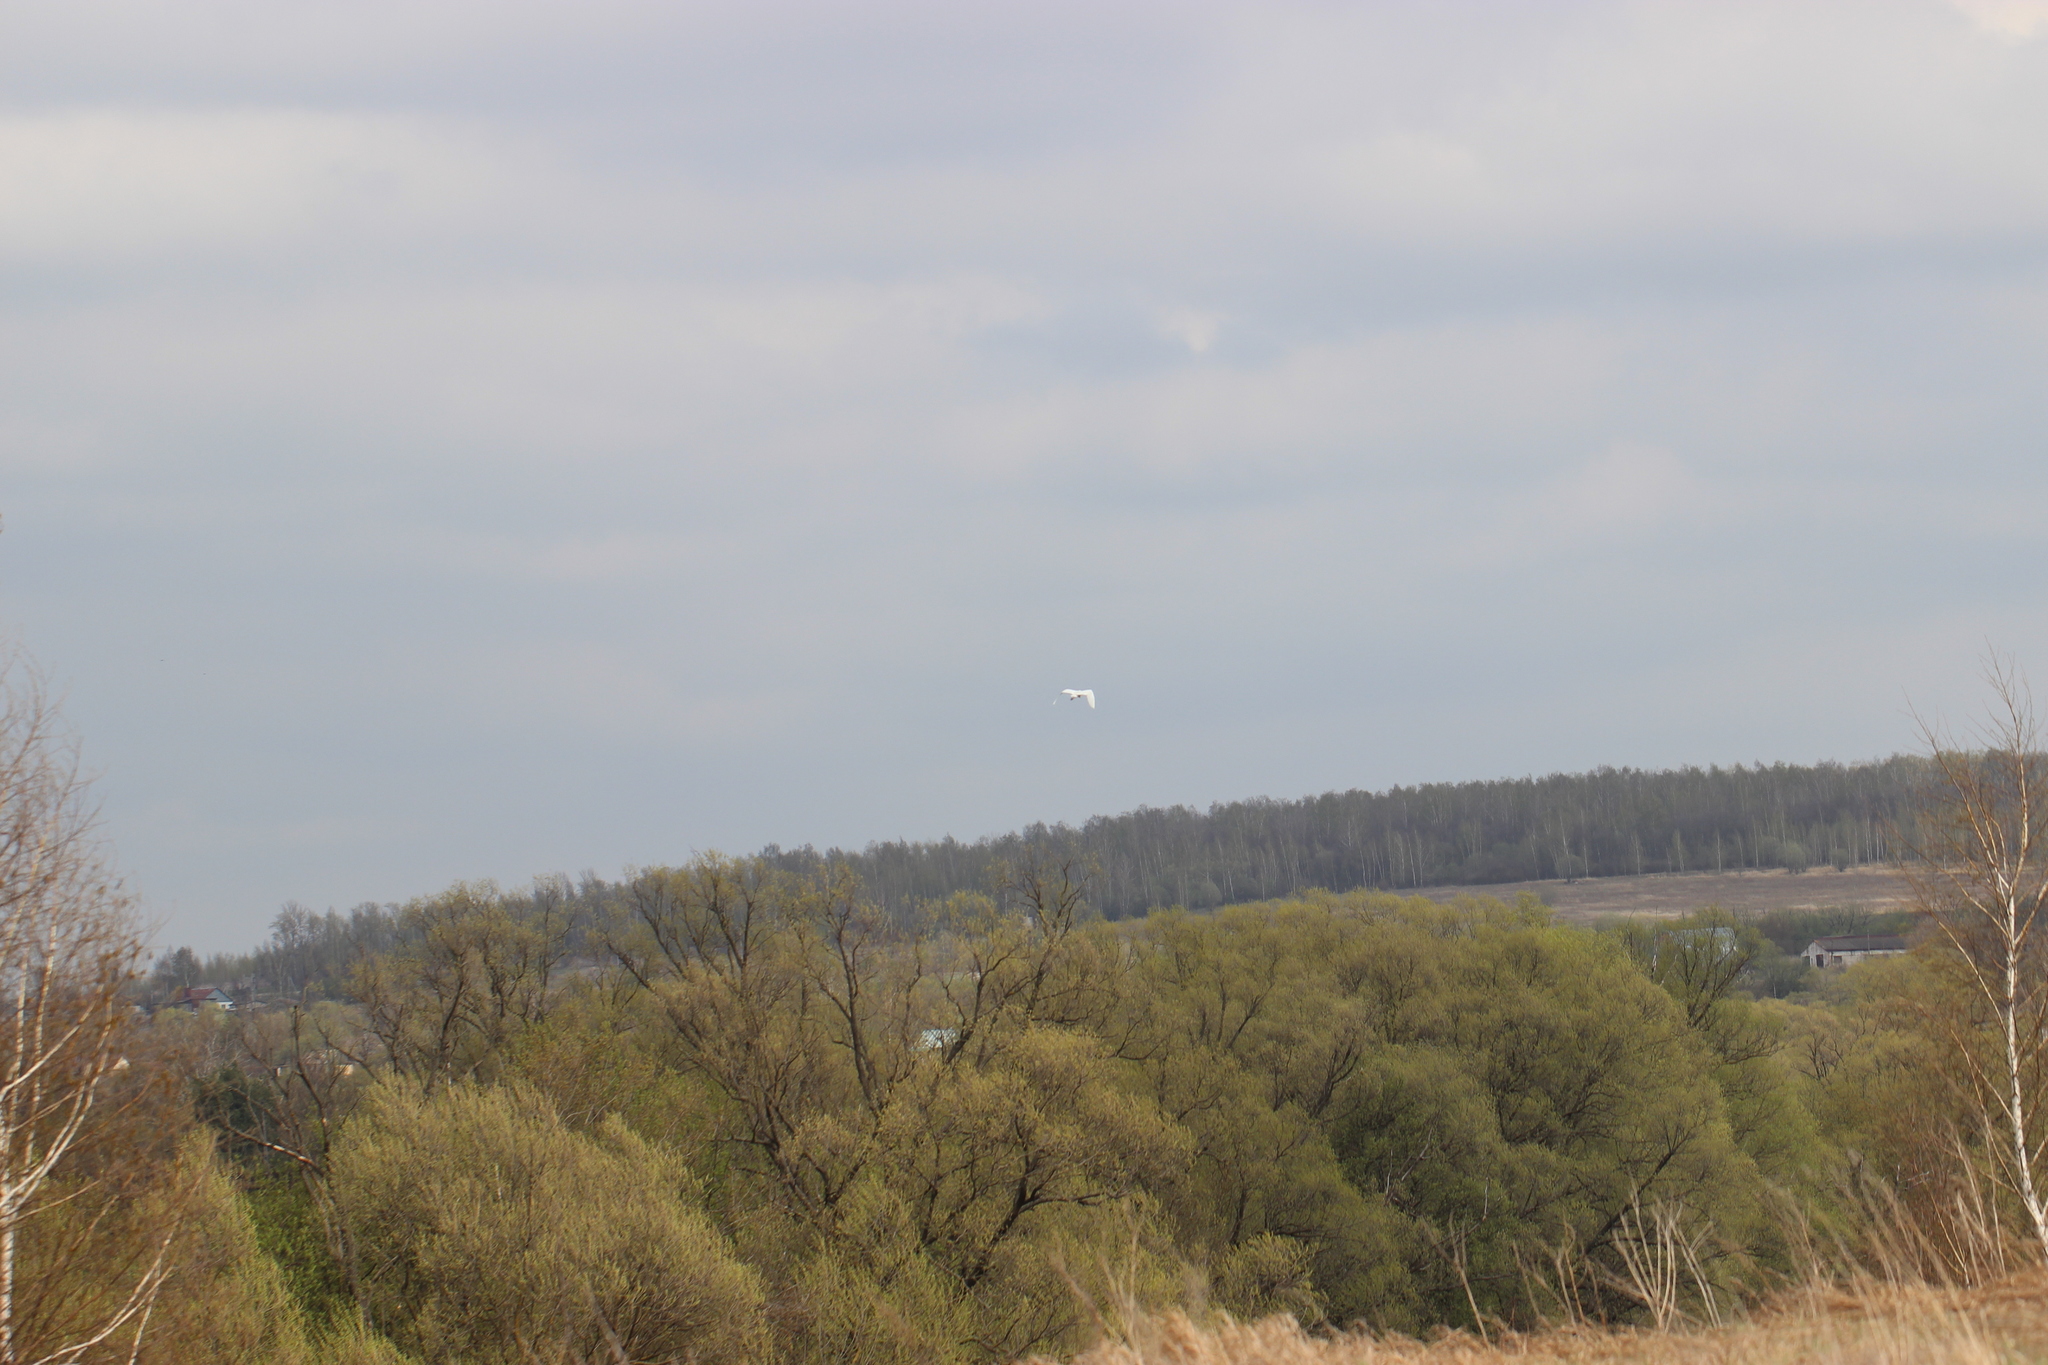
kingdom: Animalia
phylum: Chordata
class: Aves
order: Pelecaniformes
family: Ardeidae
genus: Ardea
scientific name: Ardea alba
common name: Great egret
